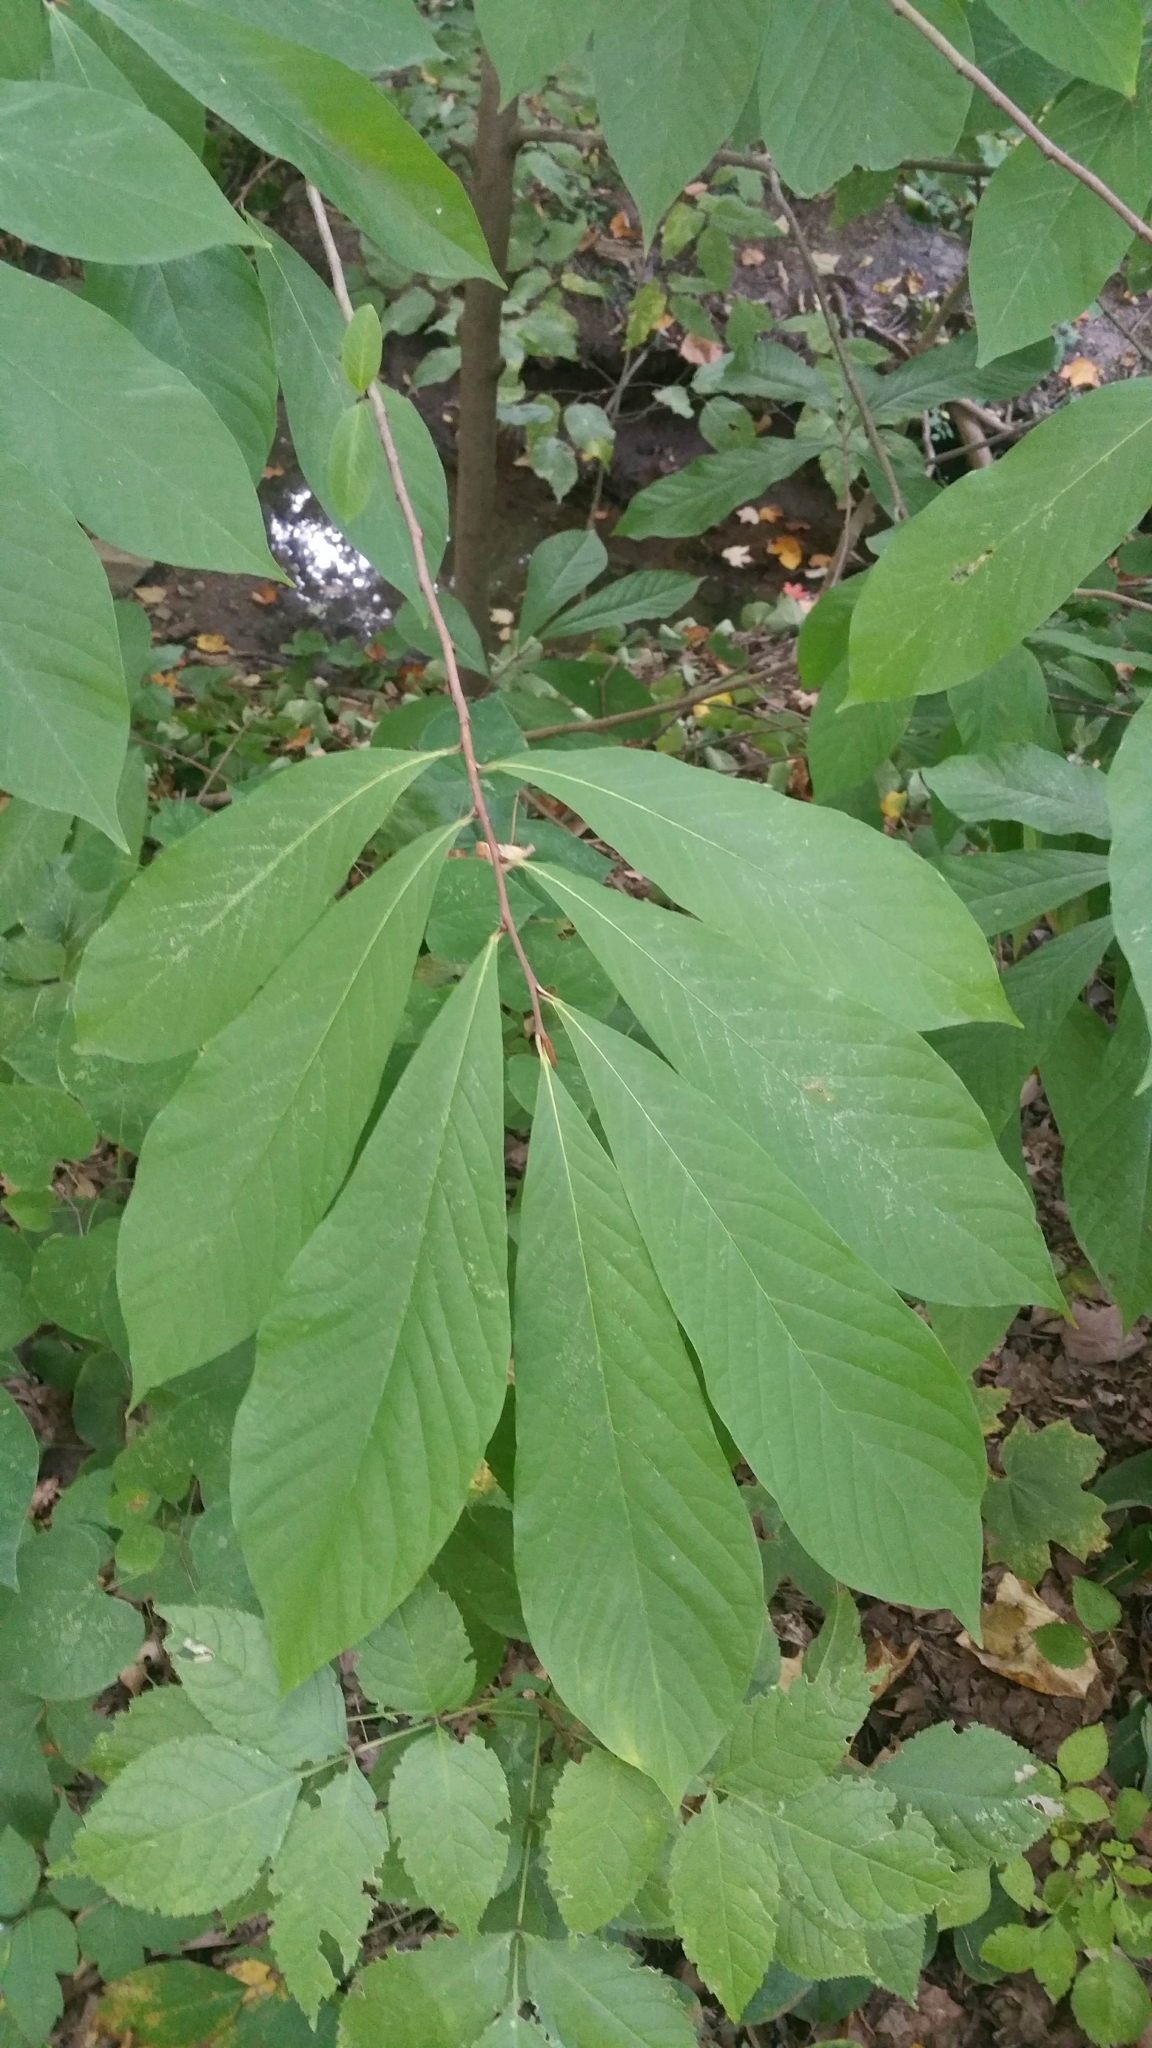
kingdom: Plantae
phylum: Tracheophyta
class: Magnoliopsida
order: Magnoliales
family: Annonaceae
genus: Asimina
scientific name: Asimina triloba
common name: Dog-banana
